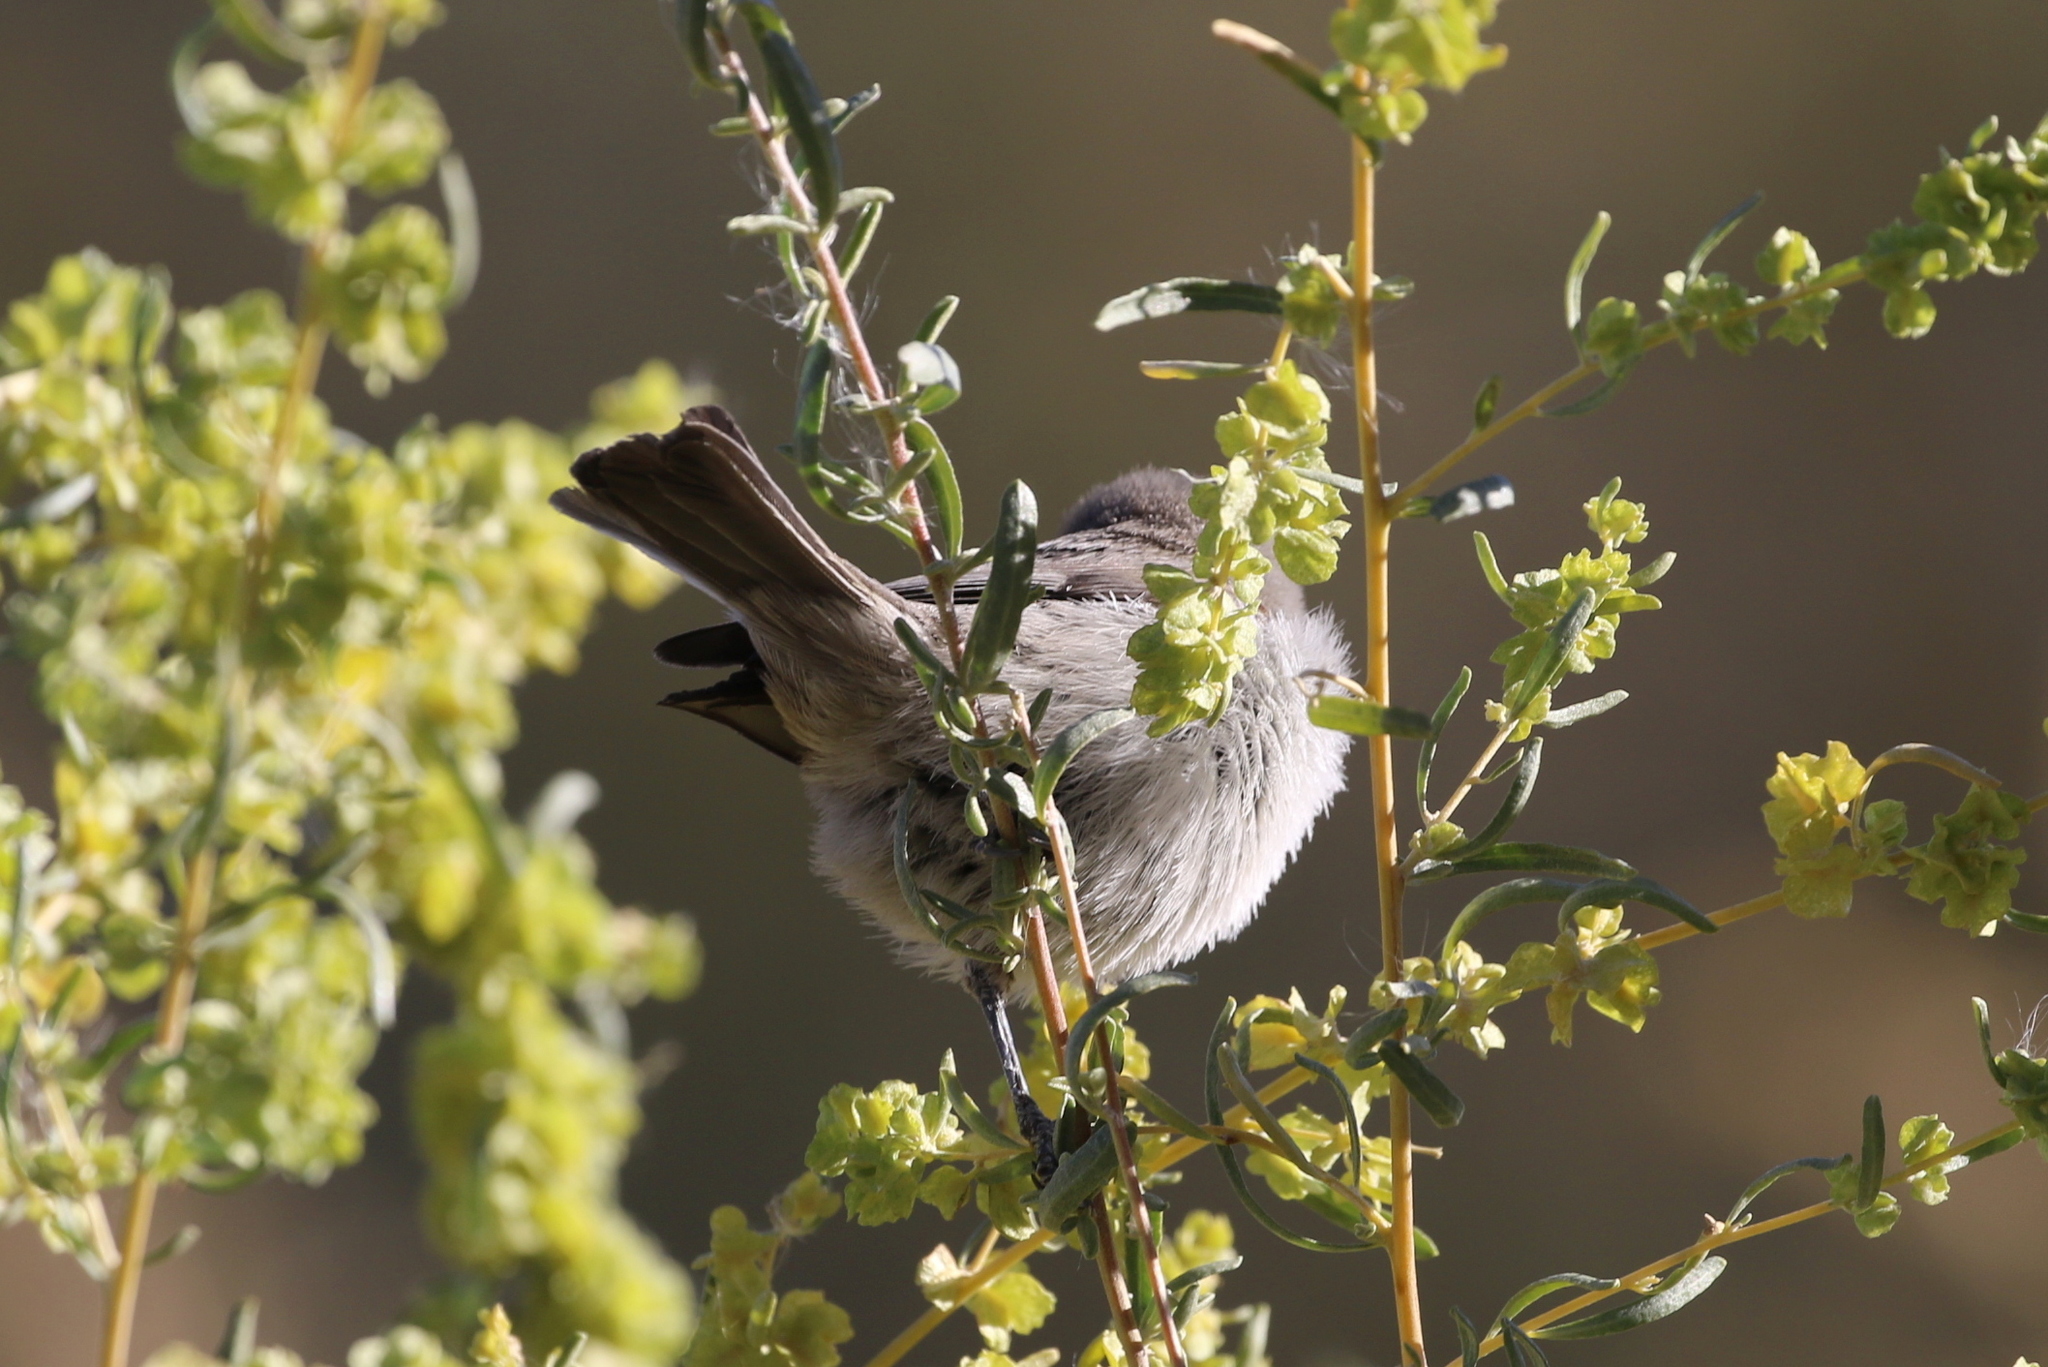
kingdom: Animalia
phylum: Chordata
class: Aves
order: Passeriformes
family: Remizidae
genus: Auriparus
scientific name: Auriparus flaviceps
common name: Verdin
